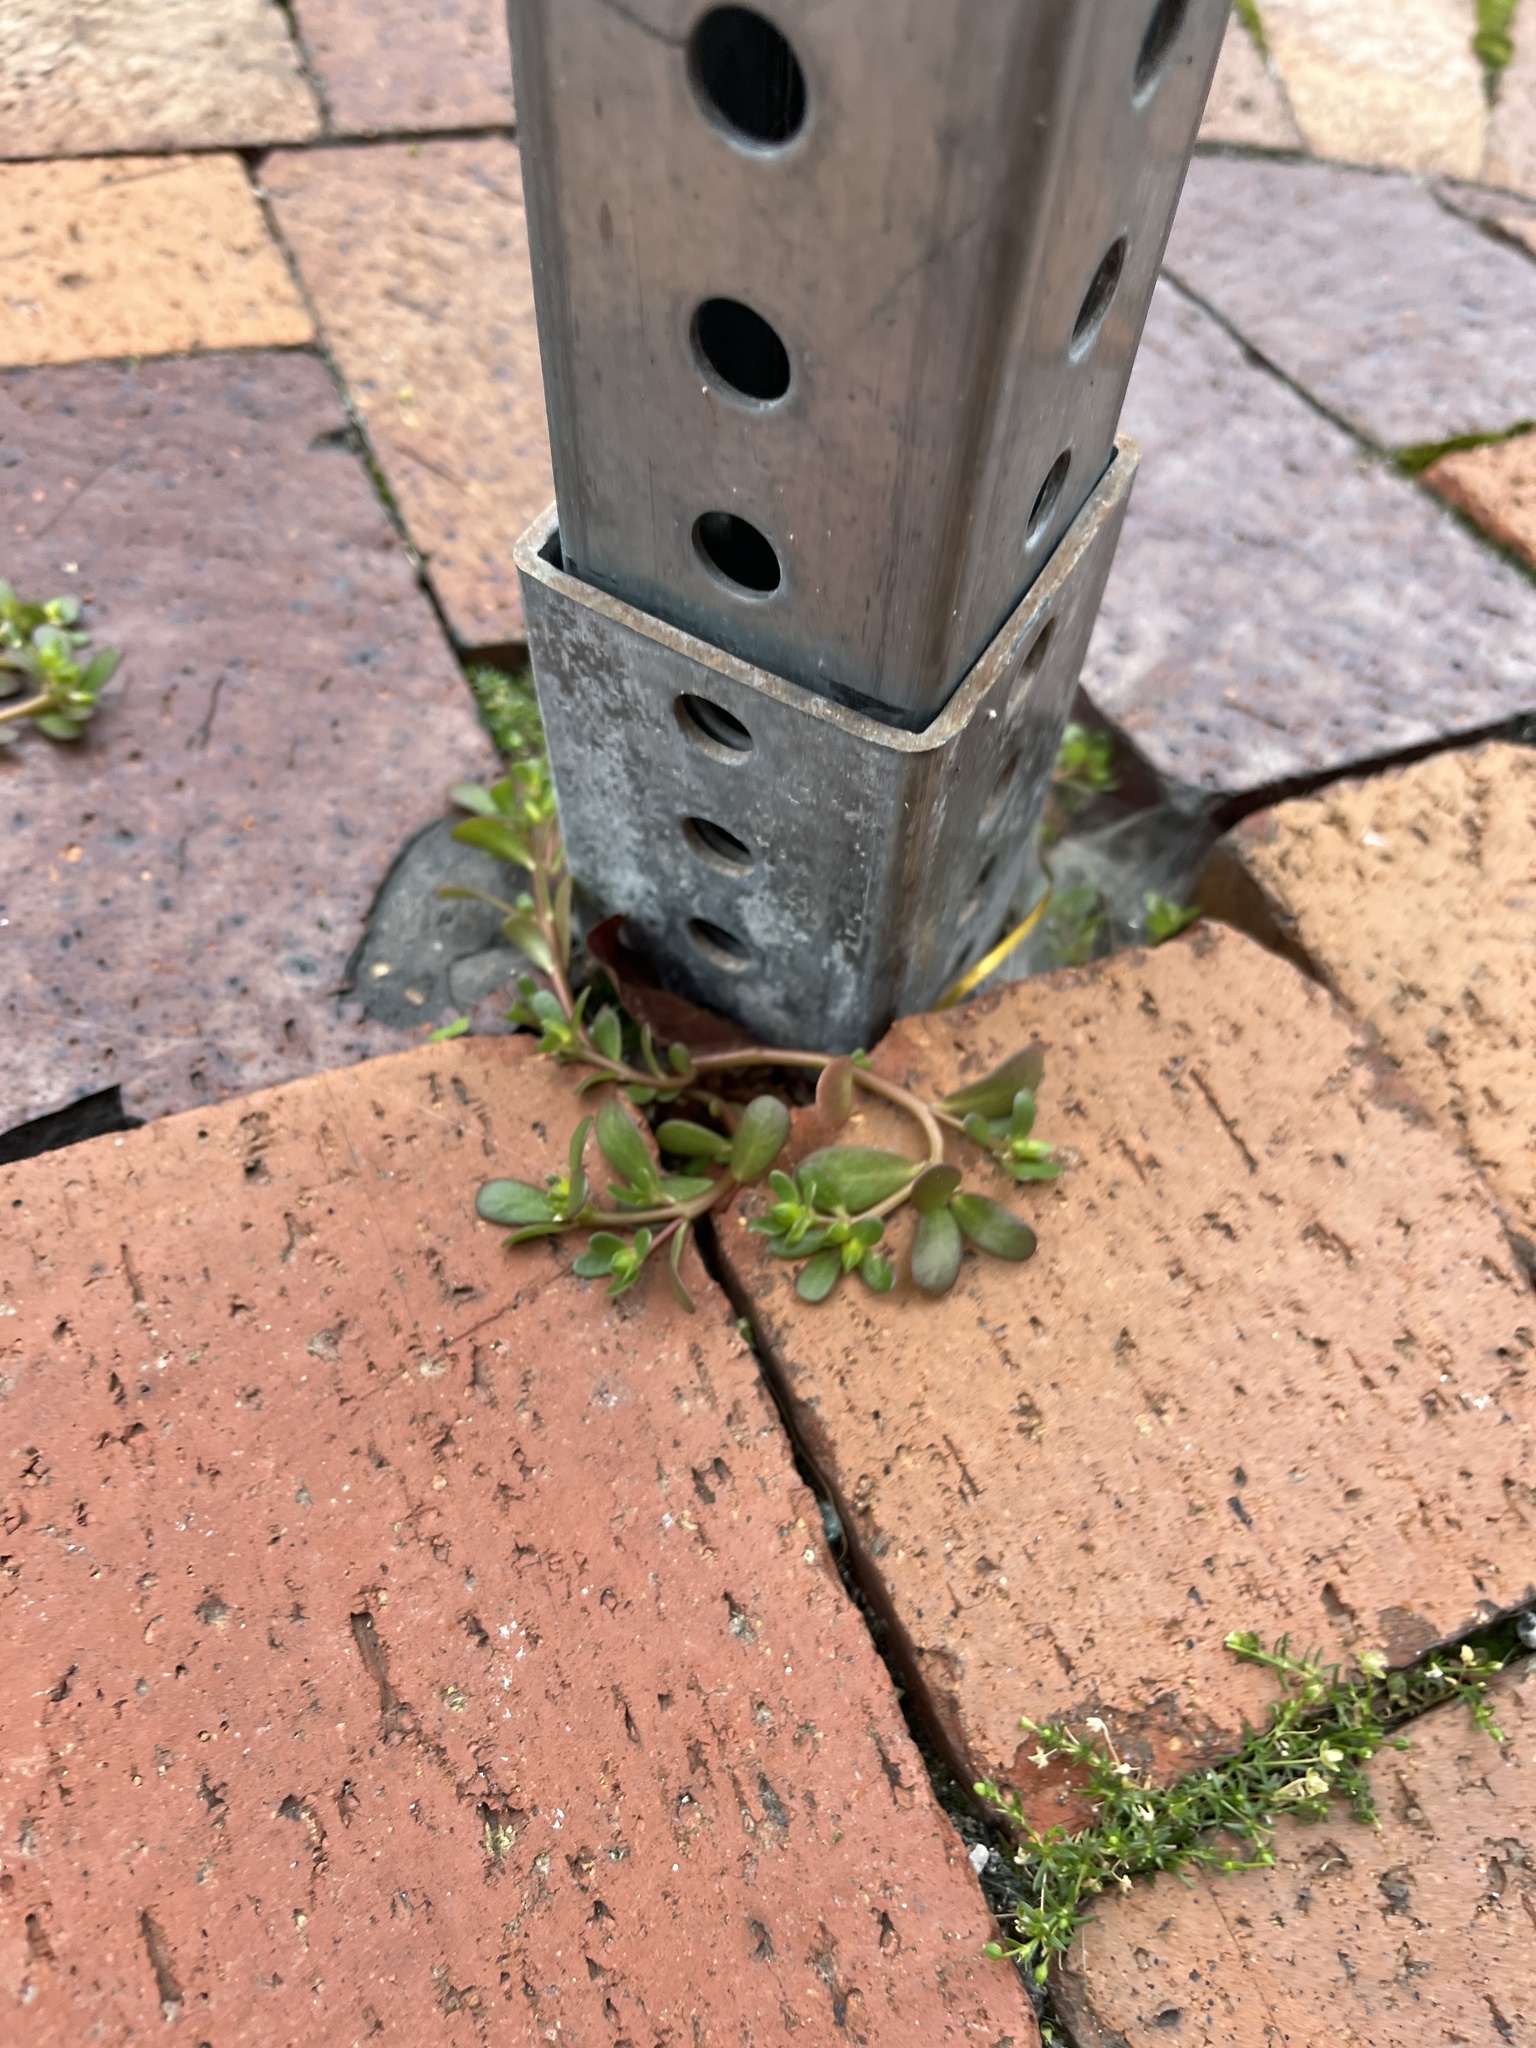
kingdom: Plantae
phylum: Tracheophyta
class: Magnoliopsida
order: Caryophyllales
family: Portulacaceae
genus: Portulaca
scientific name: Portulaca oleracea
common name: Common purslane
